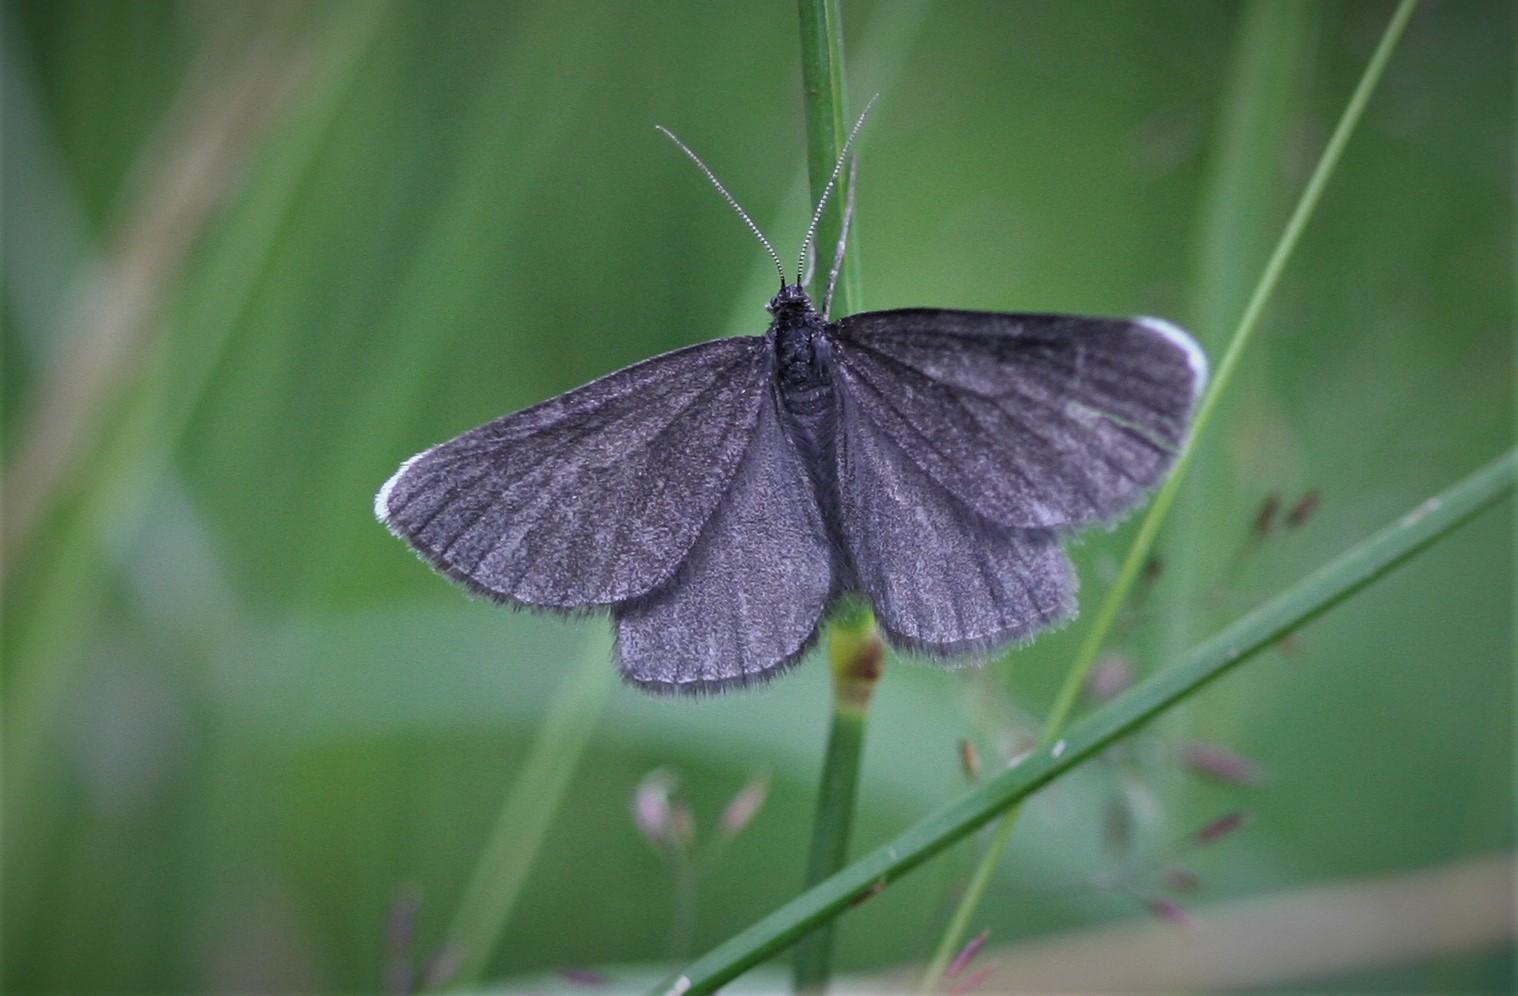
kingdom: Animalia
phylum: Arthropoda
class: Insecta
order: Lepidoptera
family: Geometridae
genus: Odezia
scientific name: Odezia atrata
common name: Chimney sweeper
